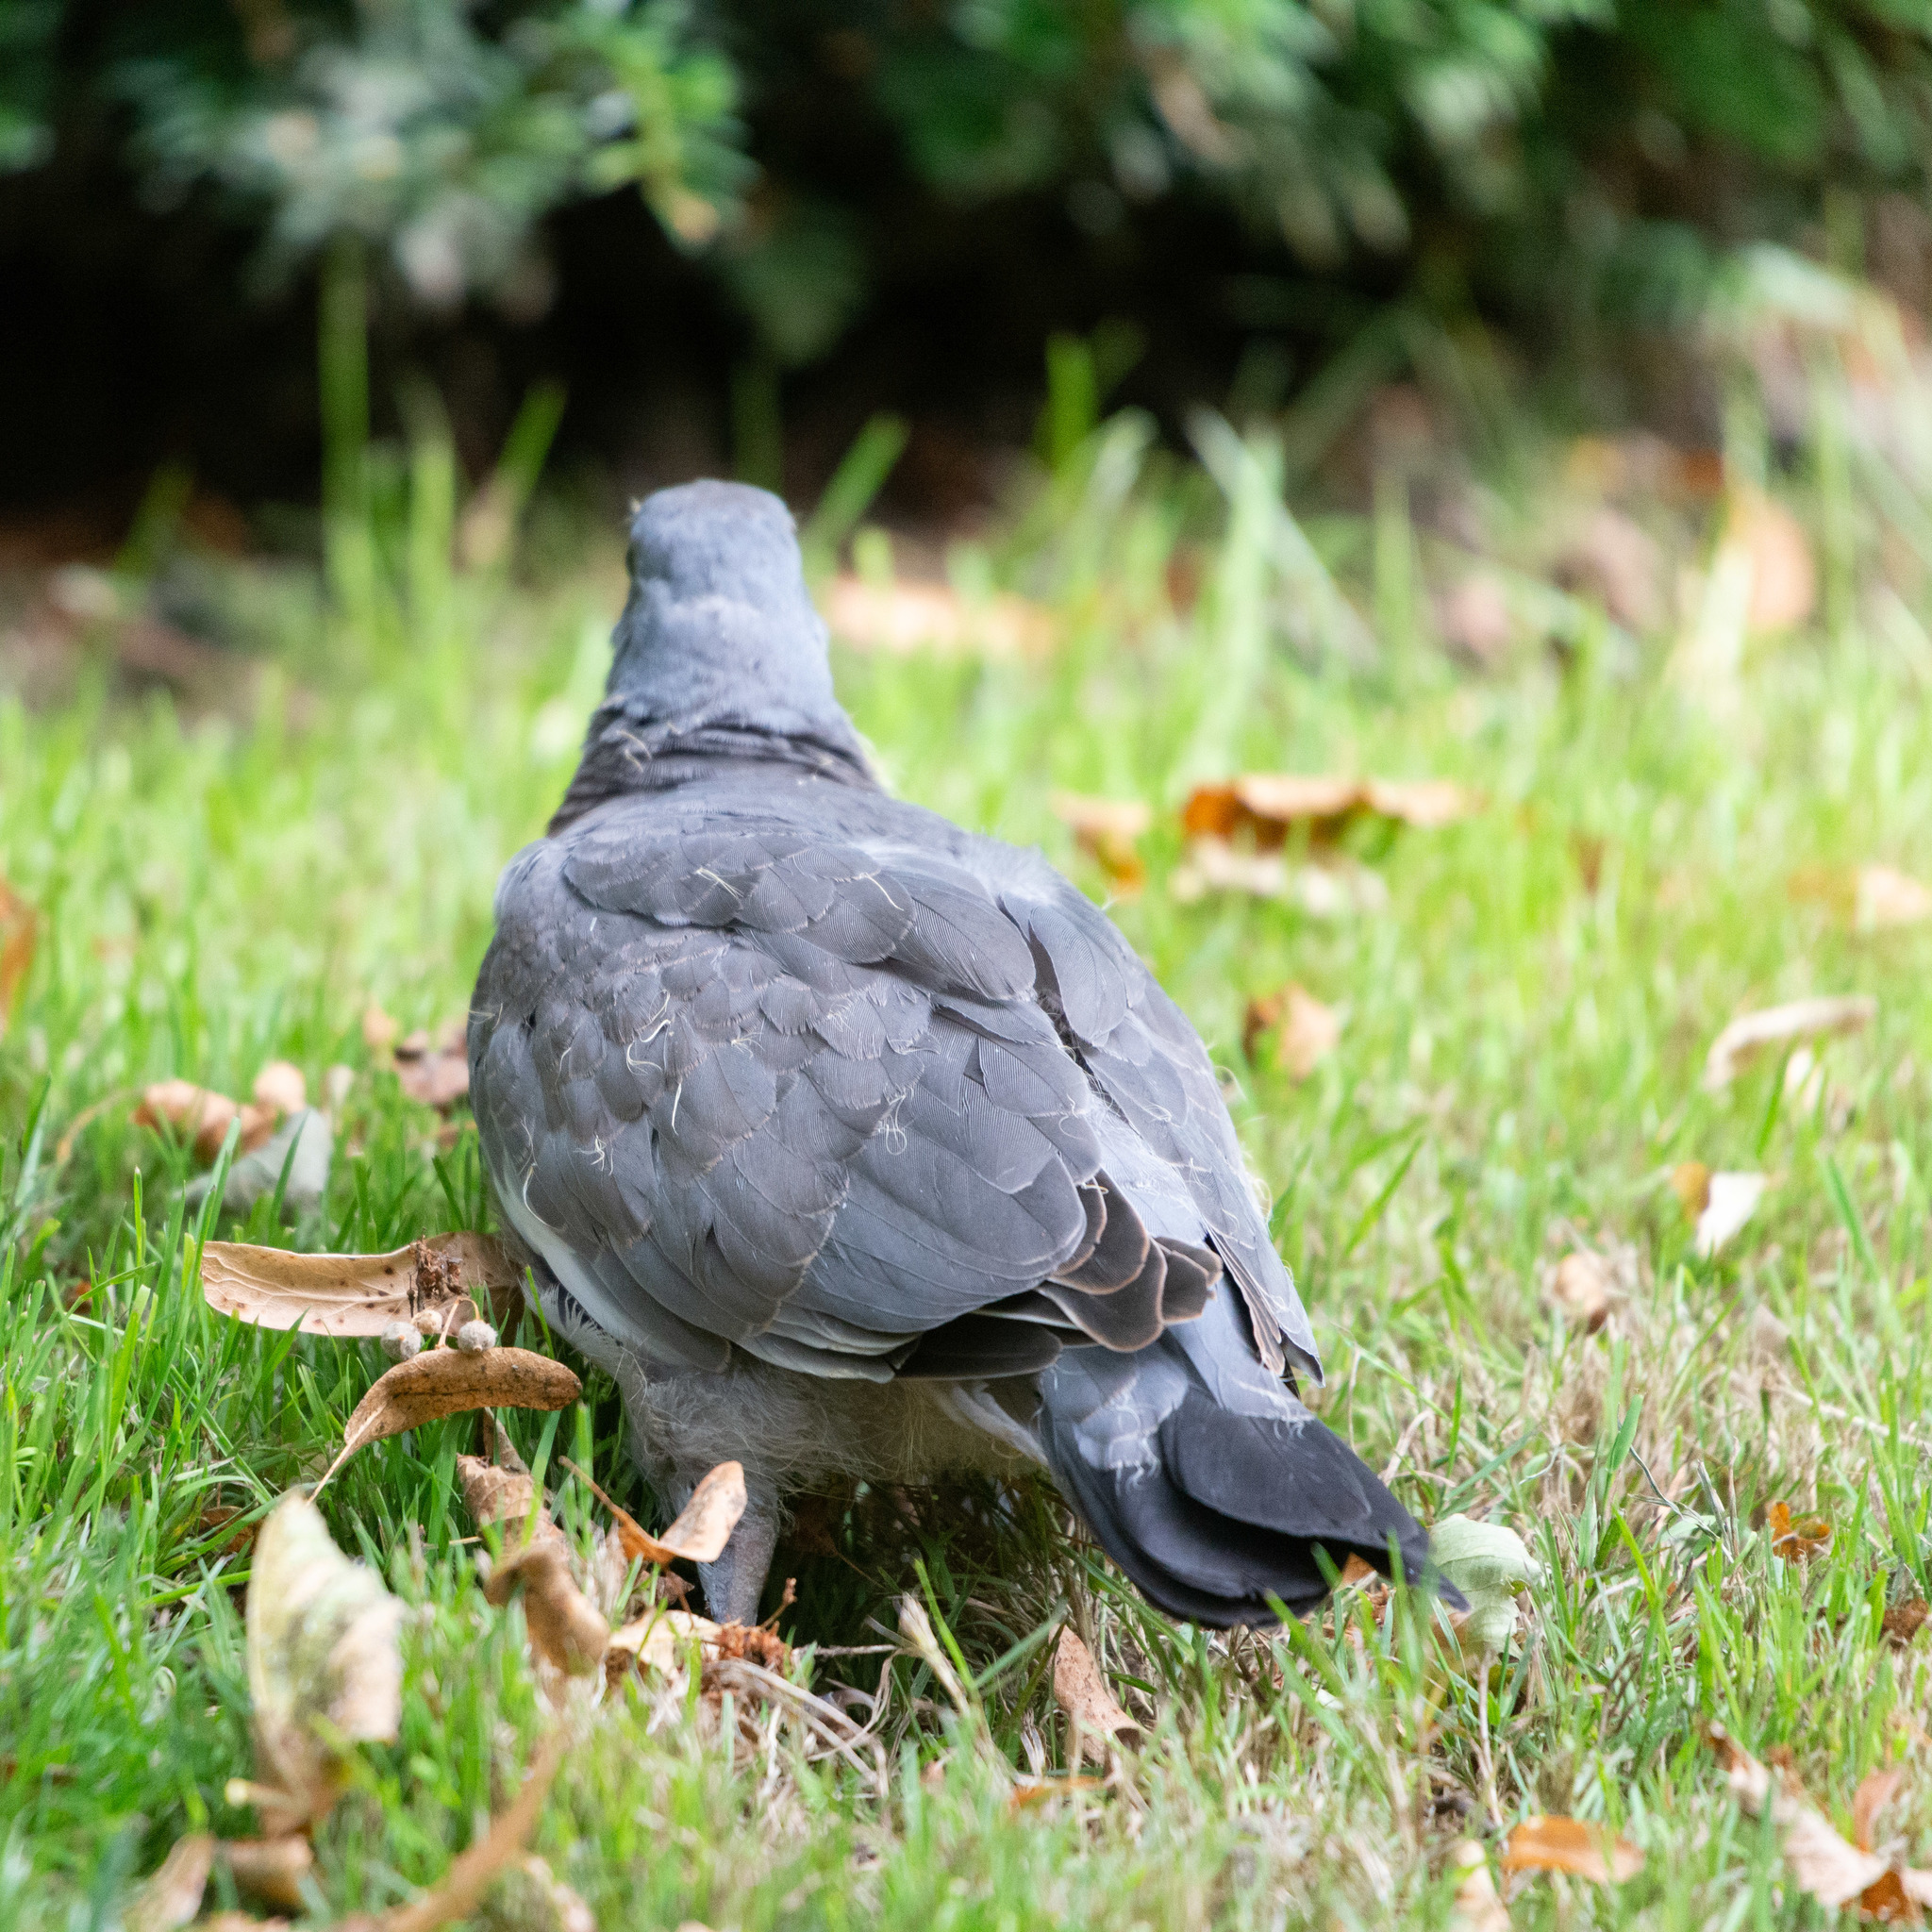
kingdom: Animalia
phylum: Chordata
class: Aves
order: Columbiformes
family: Columbidae
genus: Columba
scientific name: Columba palumbus
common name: Common wood pigeon
